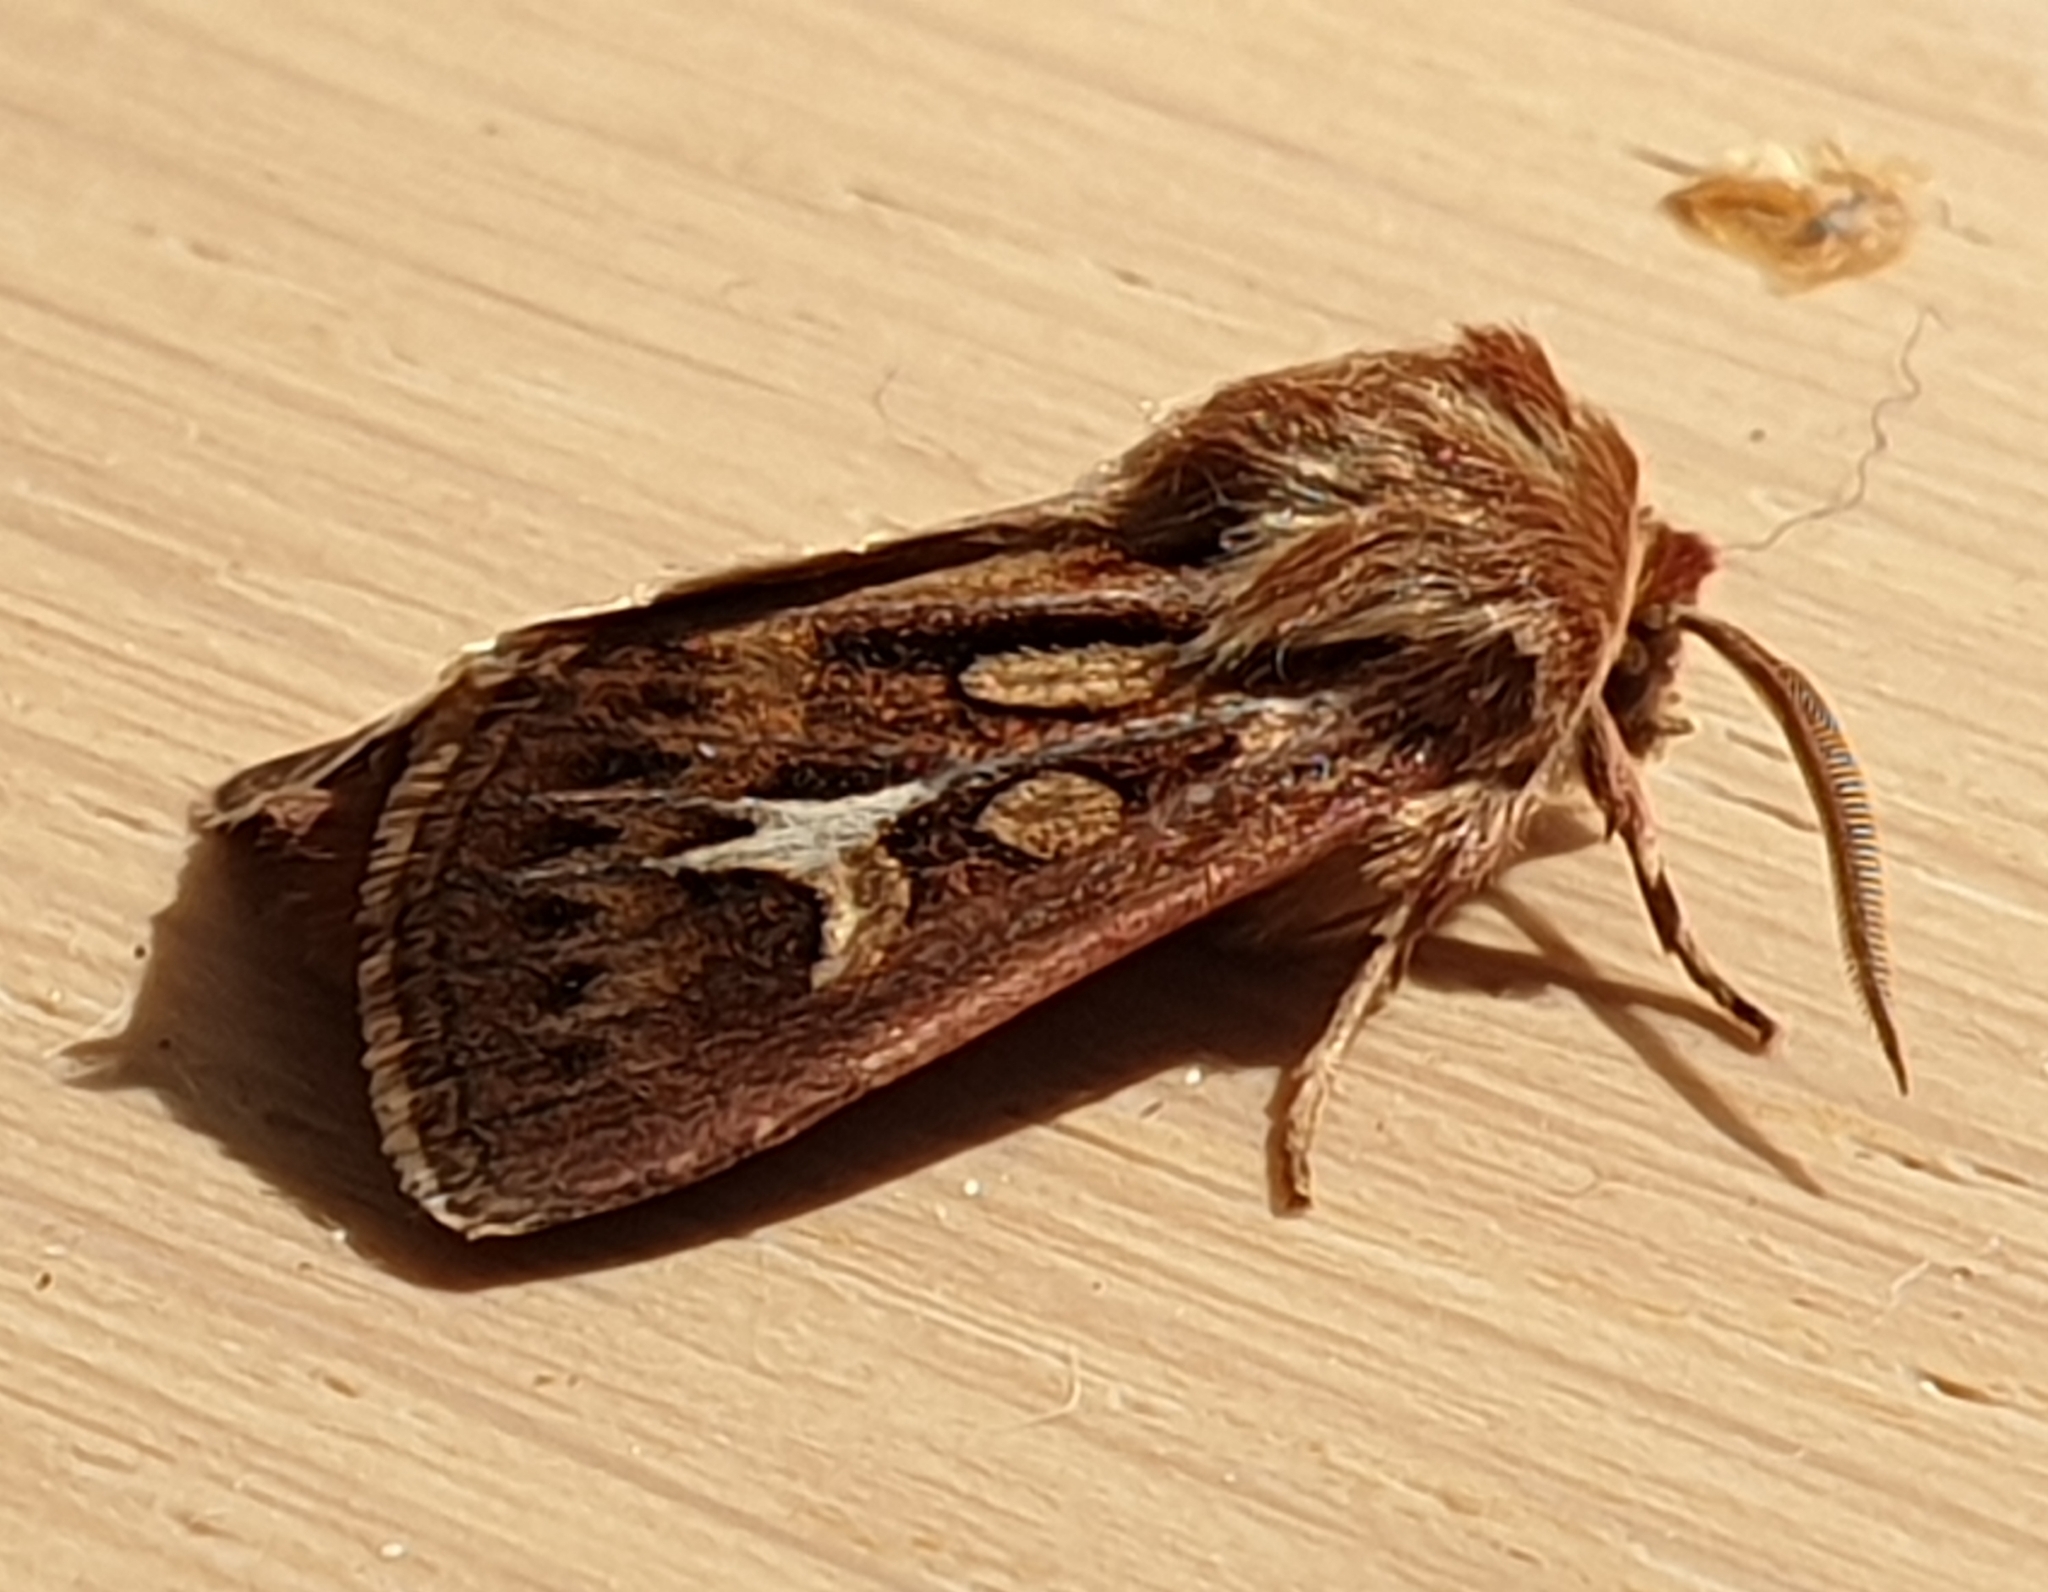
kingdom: Animalia
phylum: Arthropoda
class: Insecta
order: Lepidoptera
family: Noctuidae
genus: Cerapteryx
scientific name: Cerapteryx graminis
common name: Antler moth
